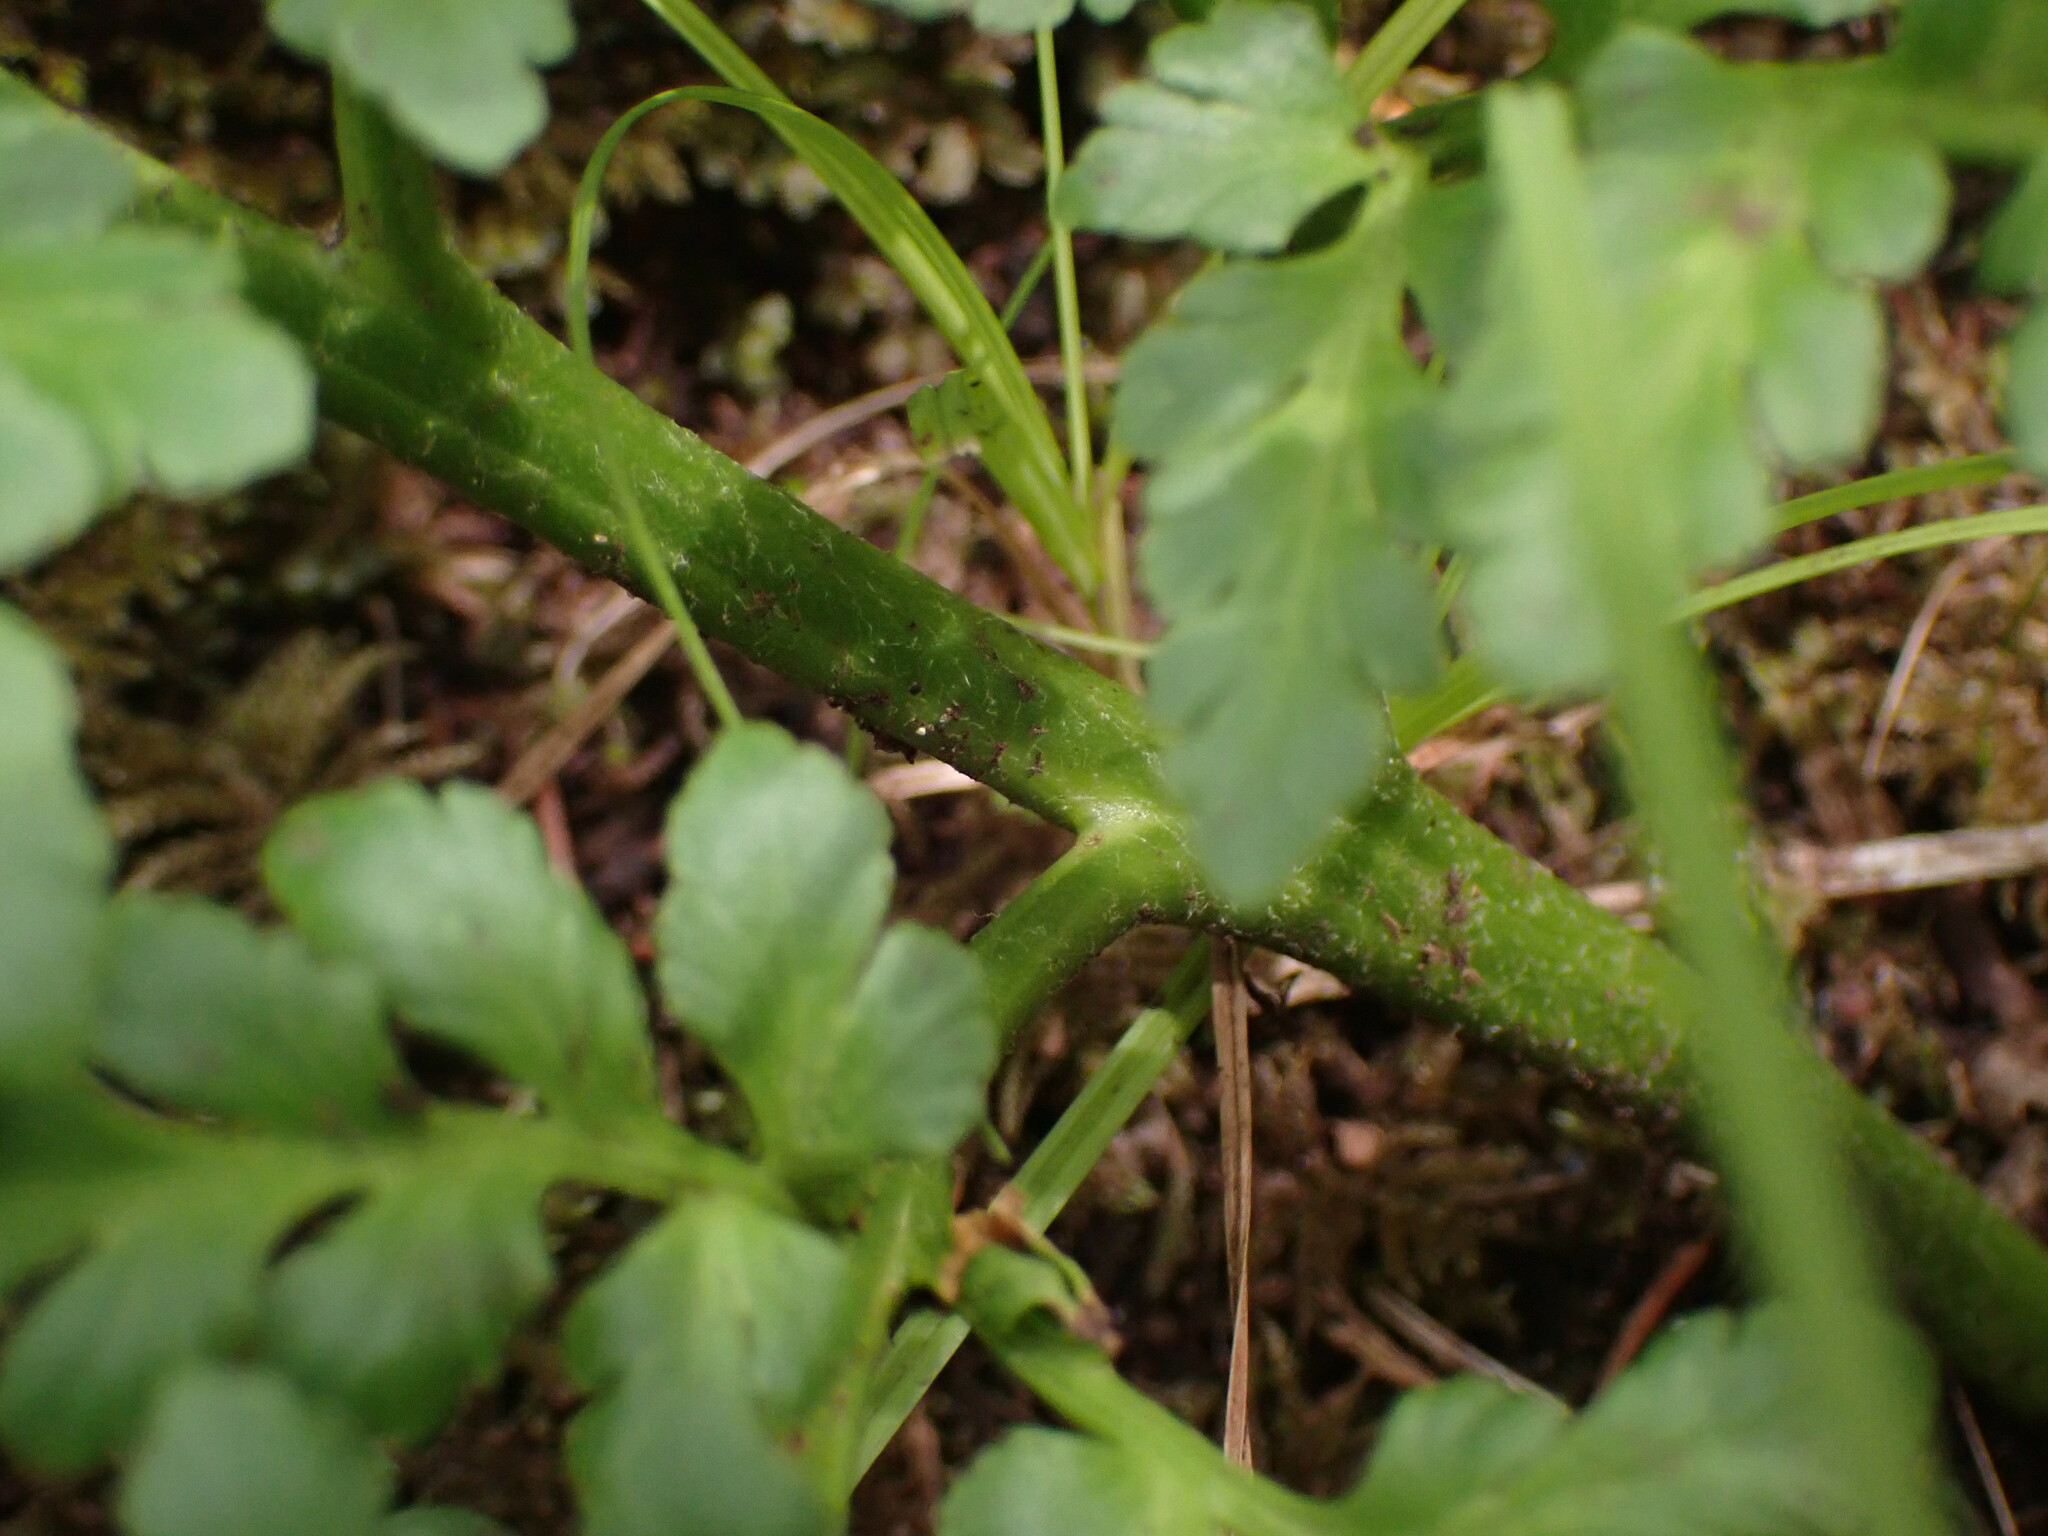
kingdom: Plantae
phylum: Tracheophyta
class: Polypodiopsida
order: Ophioglossales
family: Ophioglossaceae
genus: Sceptridium
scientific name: Sceptridium multifidum
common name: Leathery grape fern
